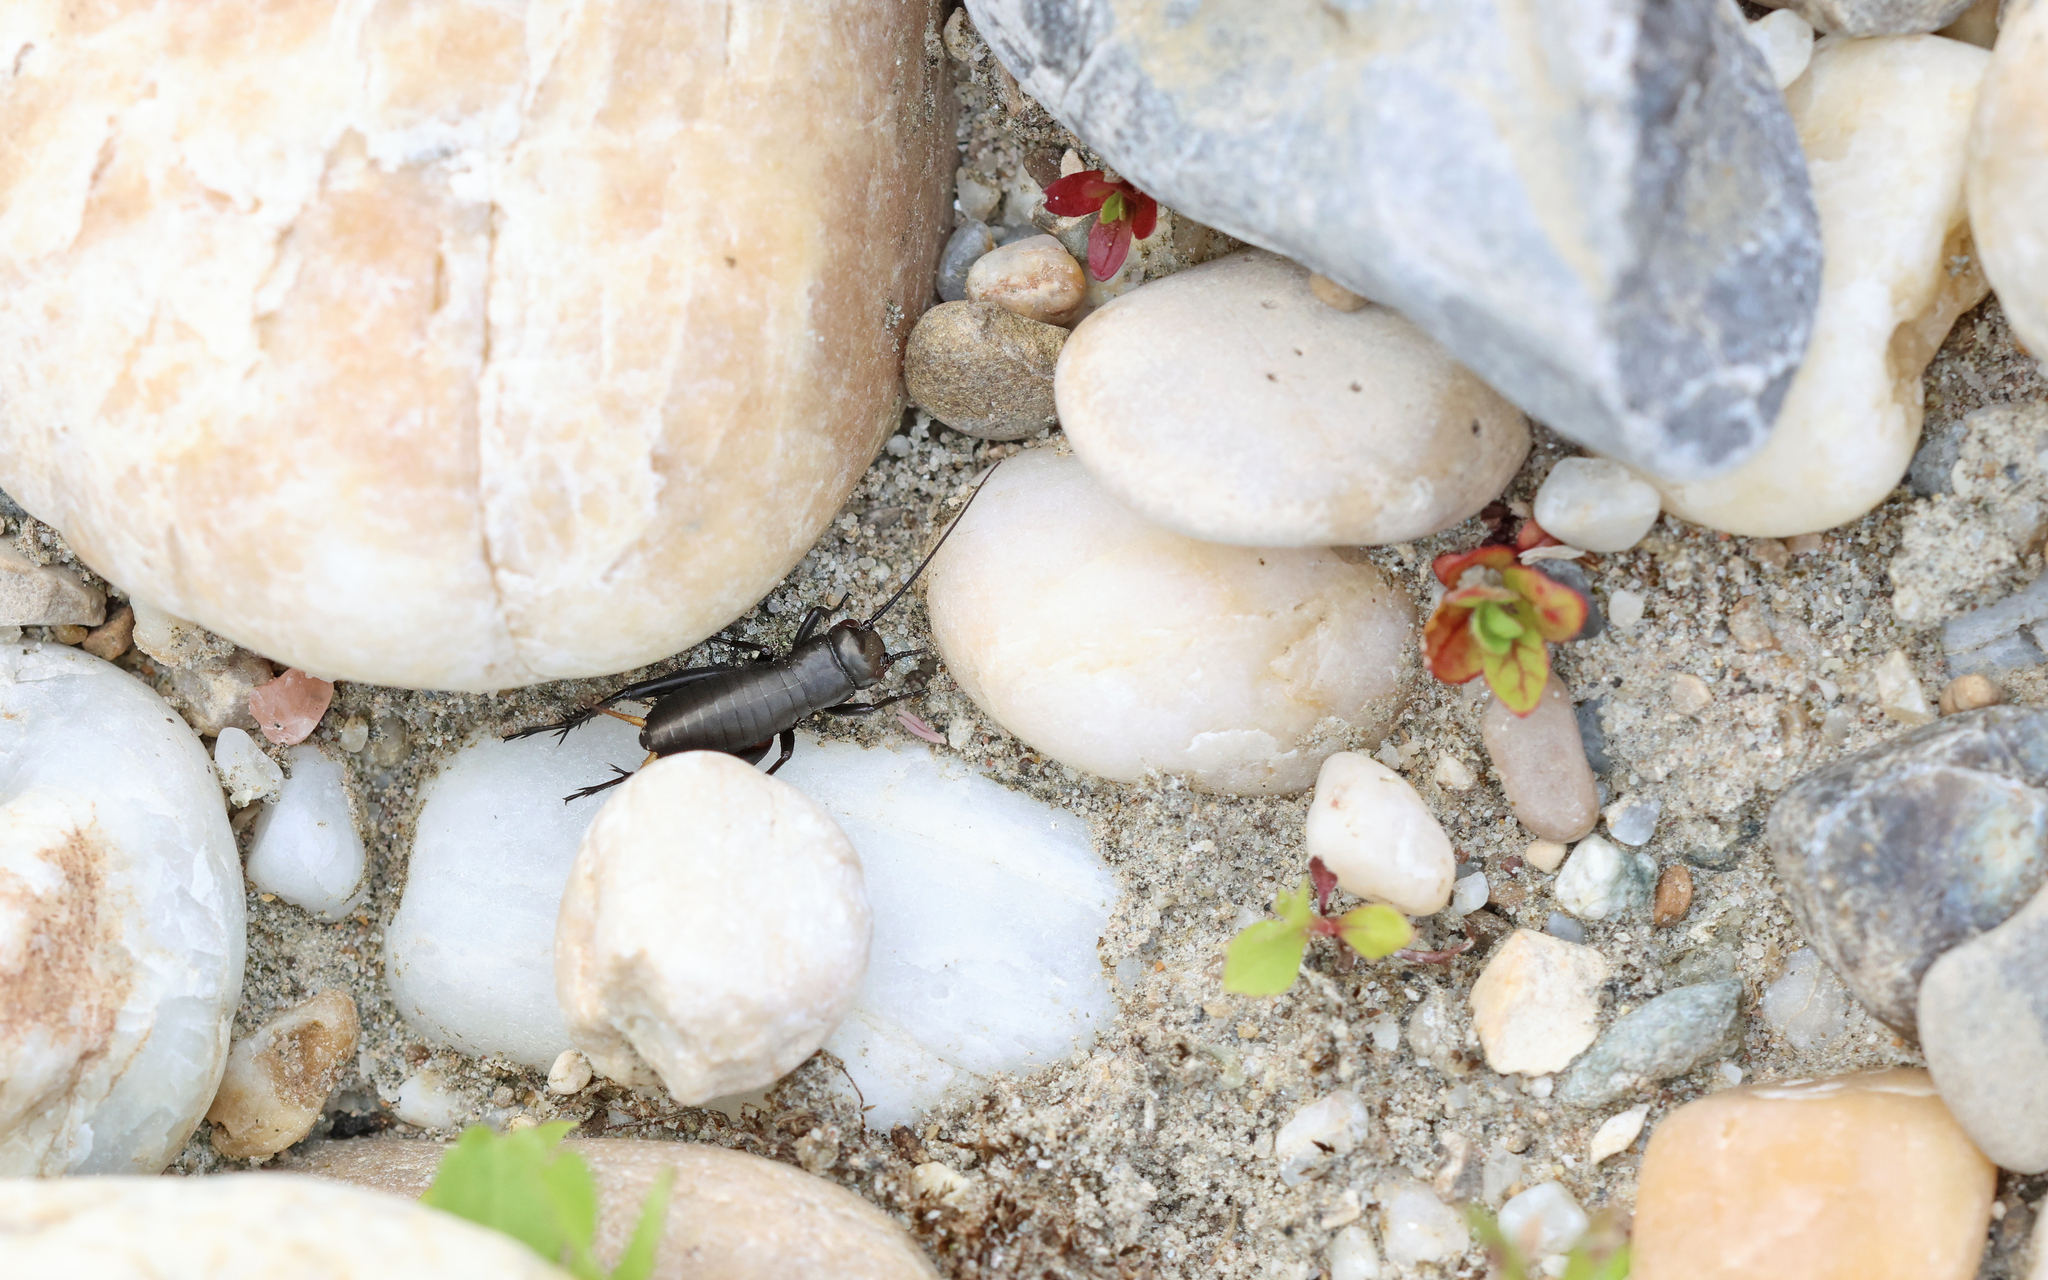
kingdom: Animalia
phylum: Arthropoda
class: Insecta
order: Orthoptera
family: Gryllidae
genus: Gryllus
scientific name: Gryllus campestris
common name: Field cricket
